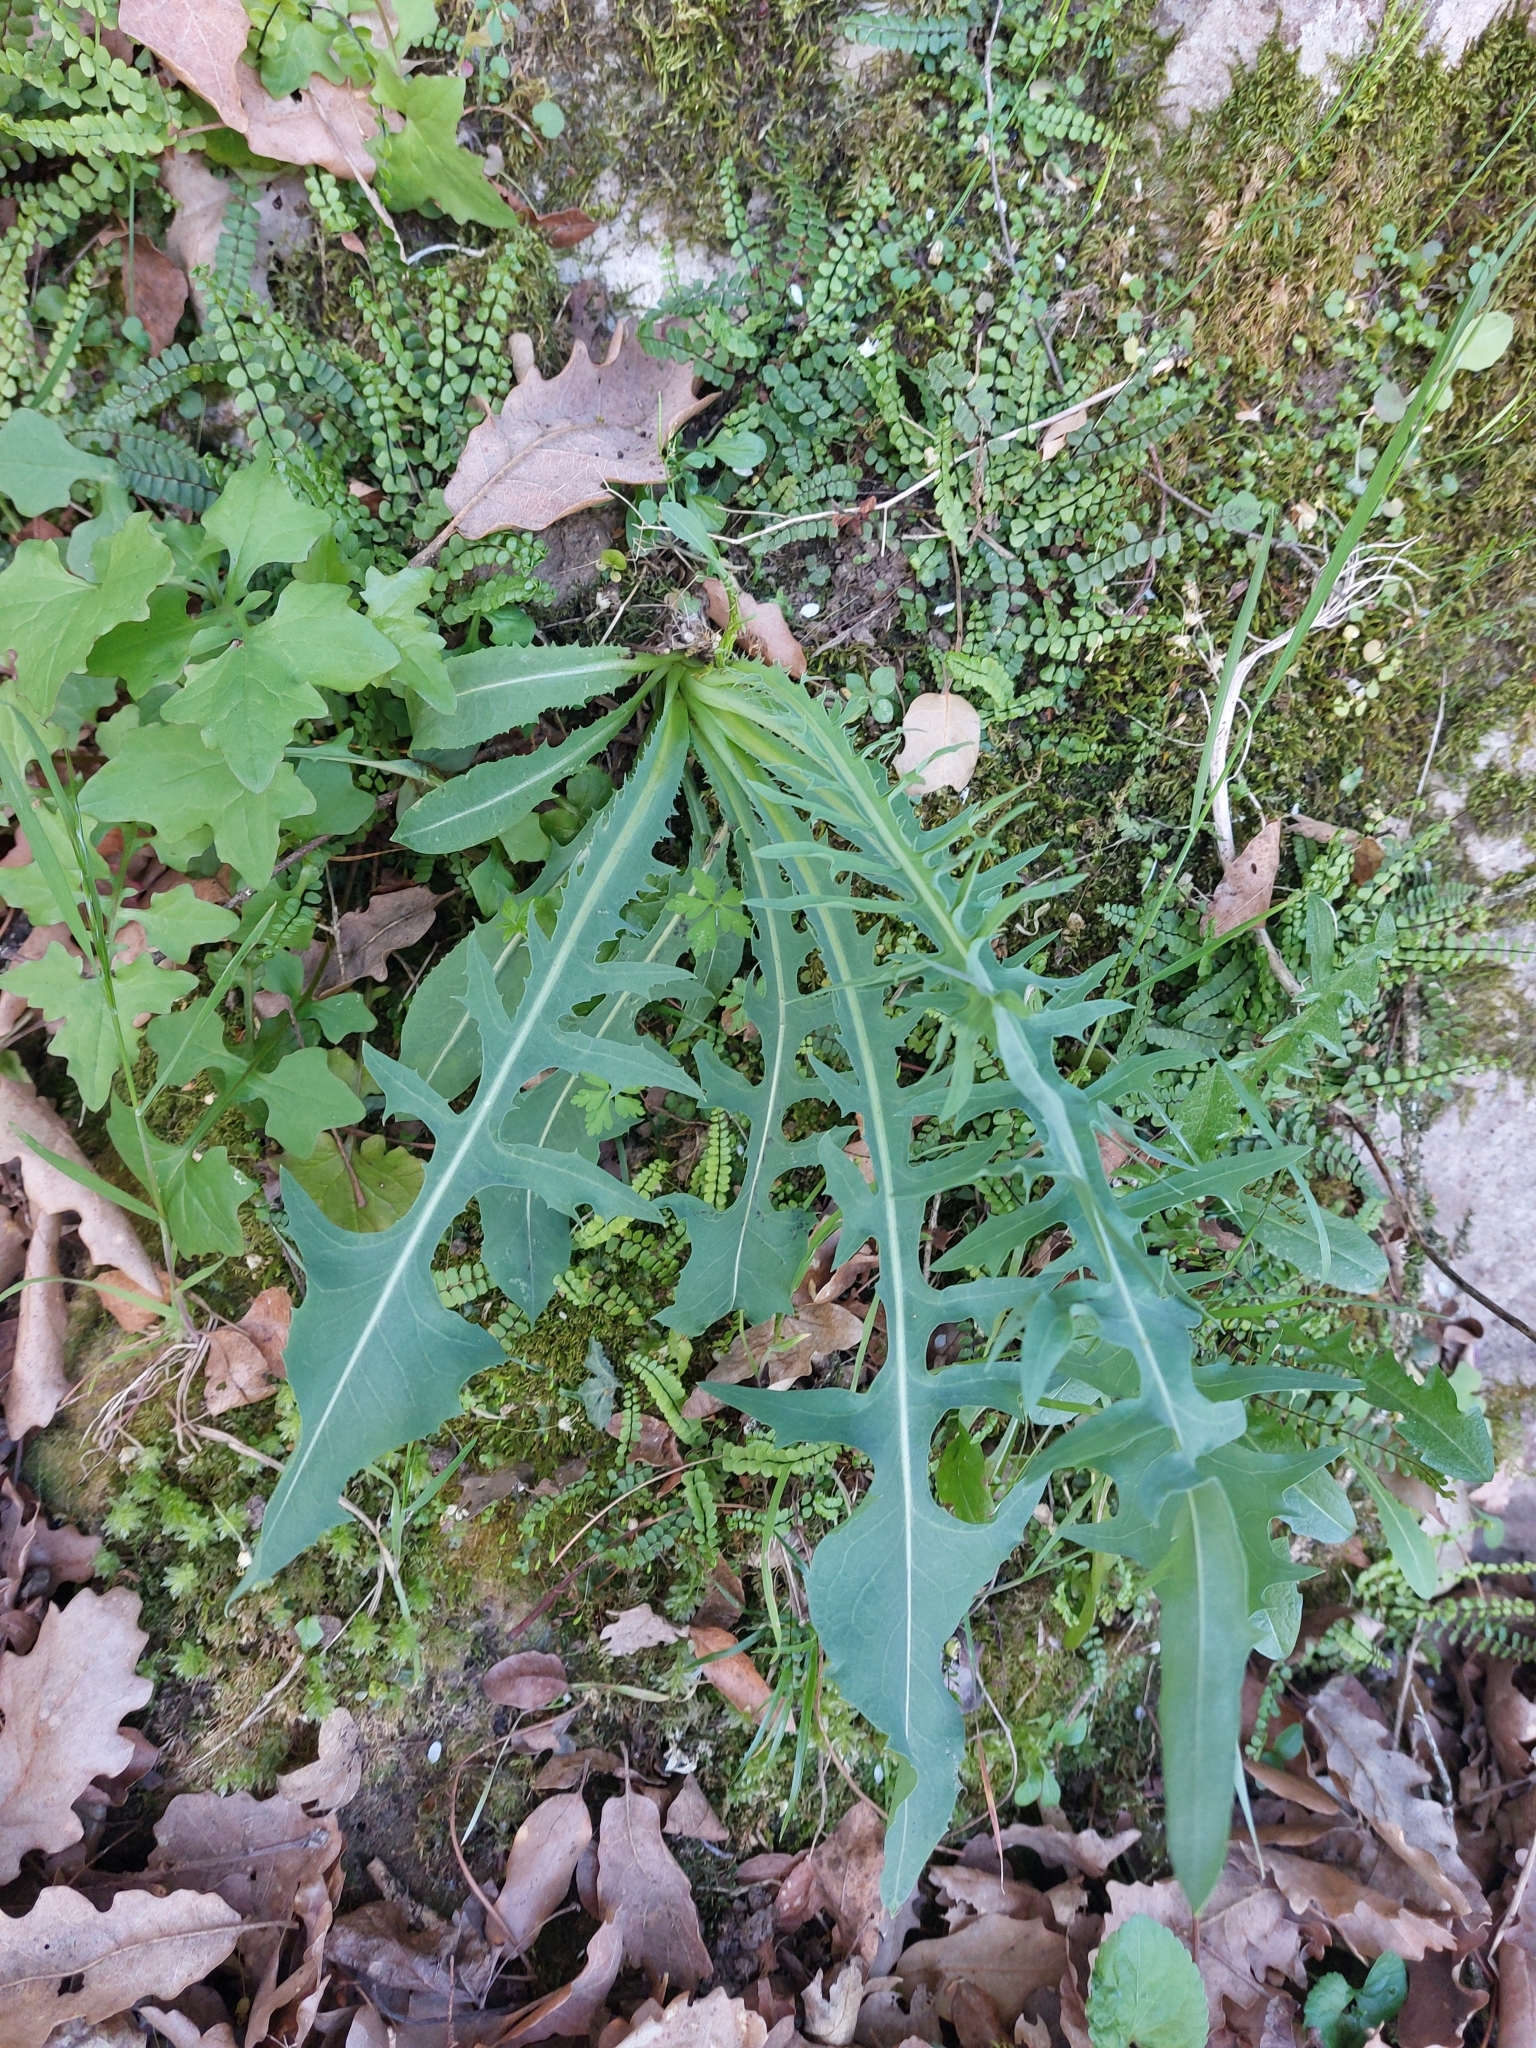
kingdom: Plantae
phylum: Tracheophyta
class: Magnoliopsida
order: Asterales
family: Asteraceae
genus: Lactuca
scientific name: Lactuca perennis
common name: Mountain lettuce
